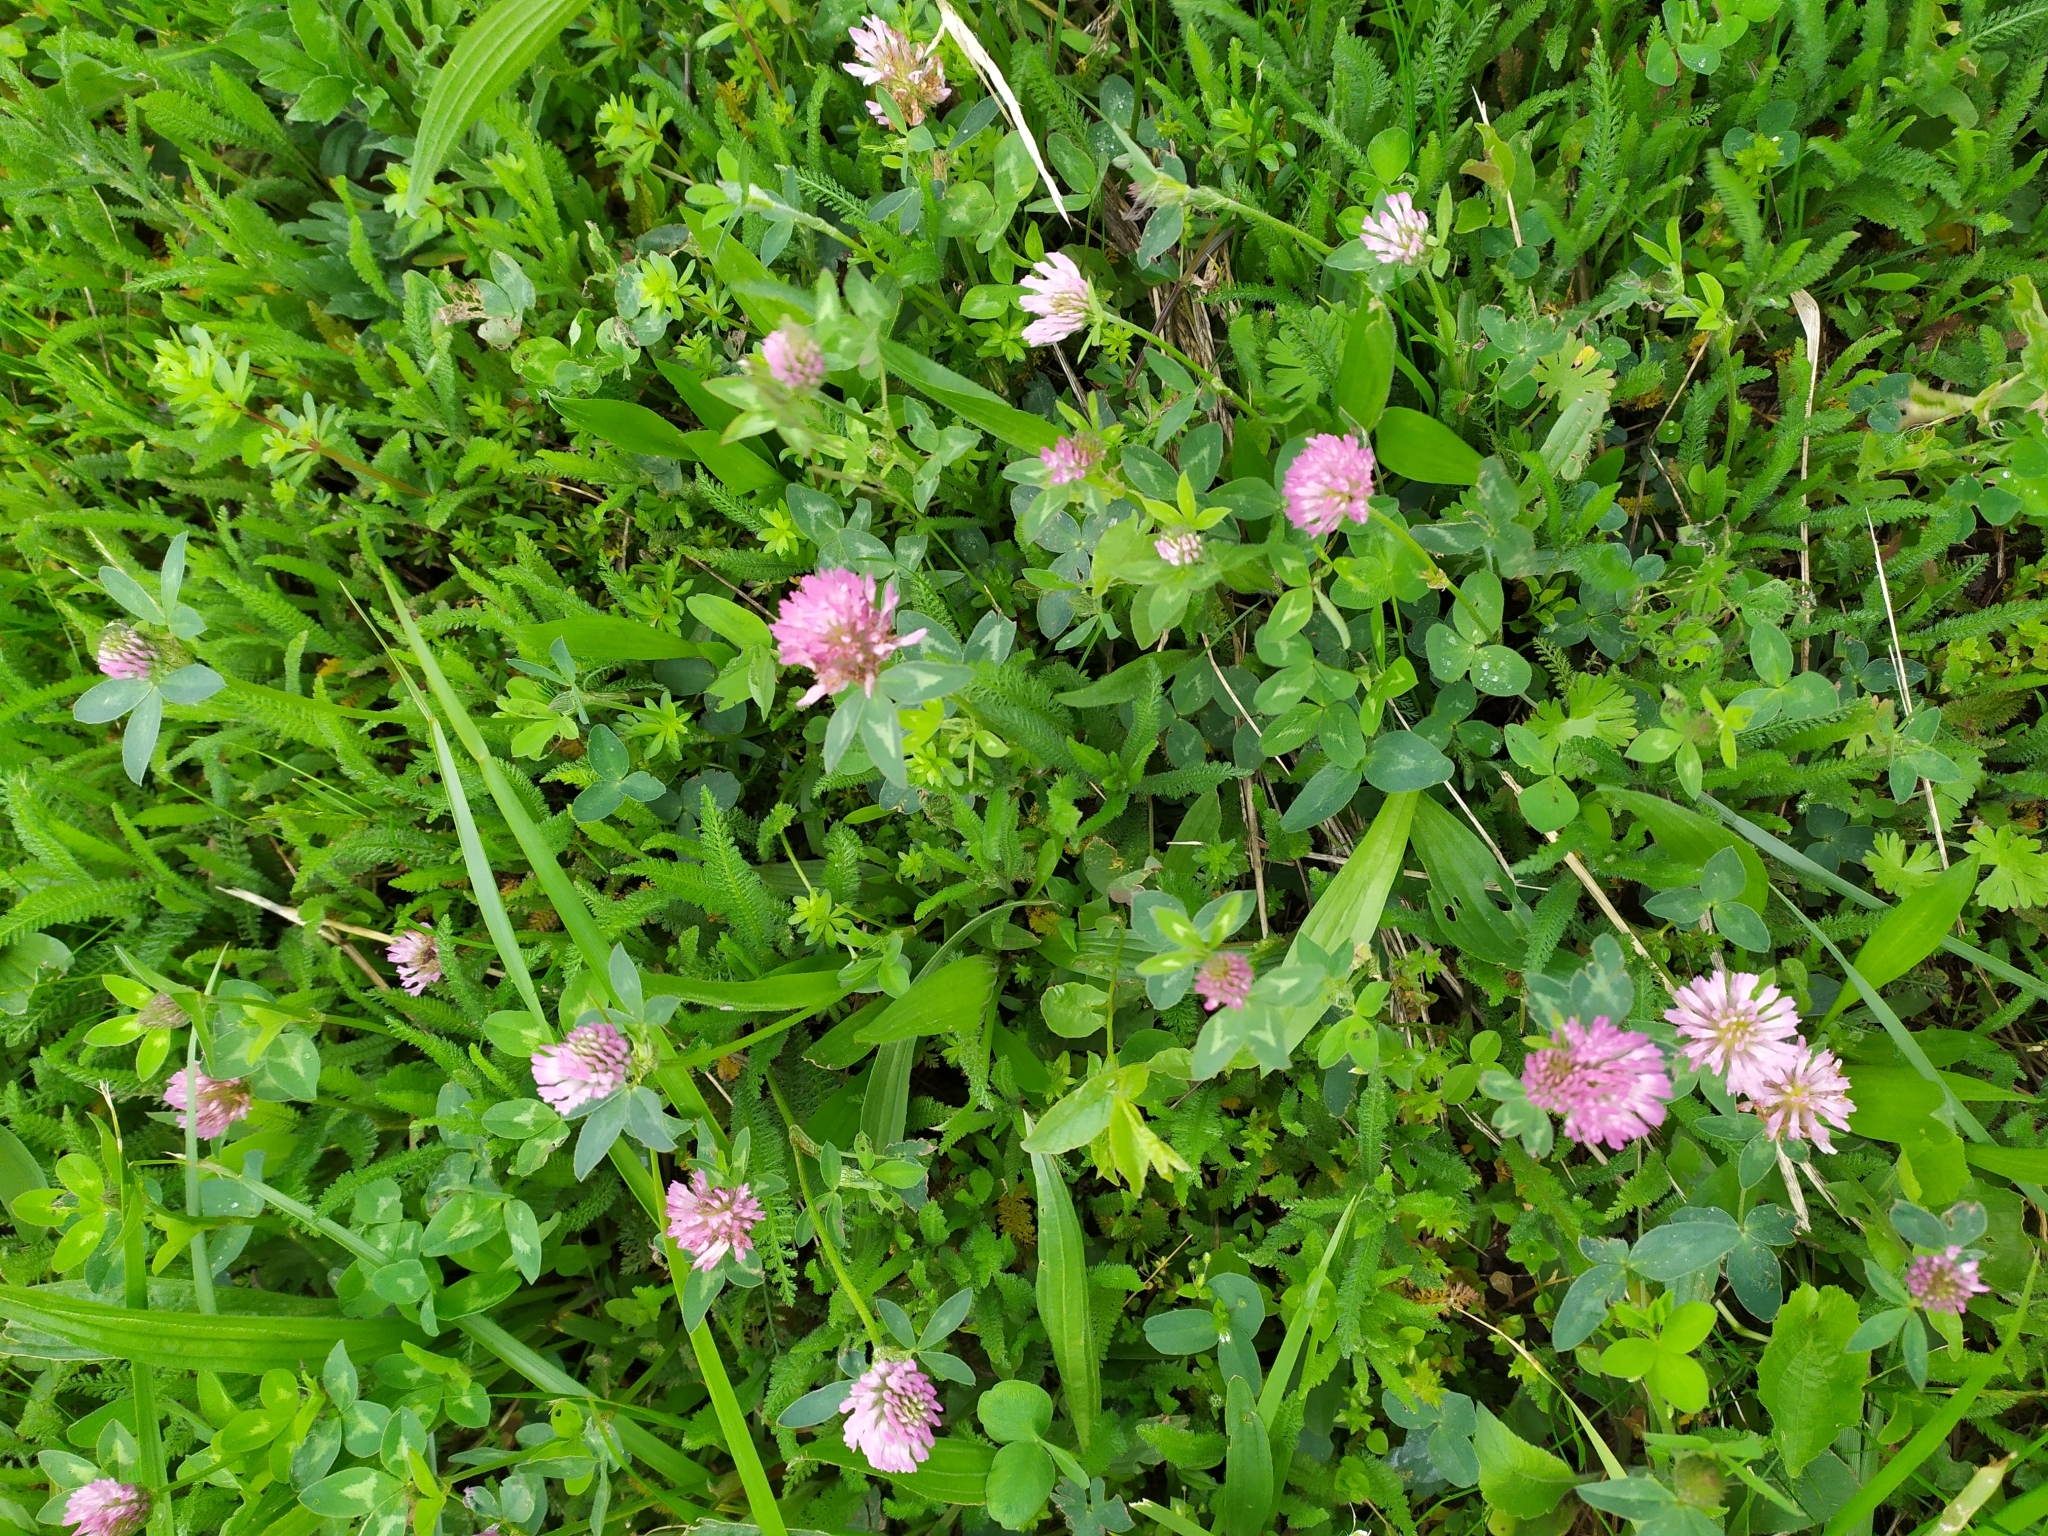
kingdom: Plantae
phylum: Tracheophyta
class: Magnoliopsida
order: Fabales
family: Fabaceae
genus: Trifolium
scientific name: Trifolium pratense
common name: Red clover
